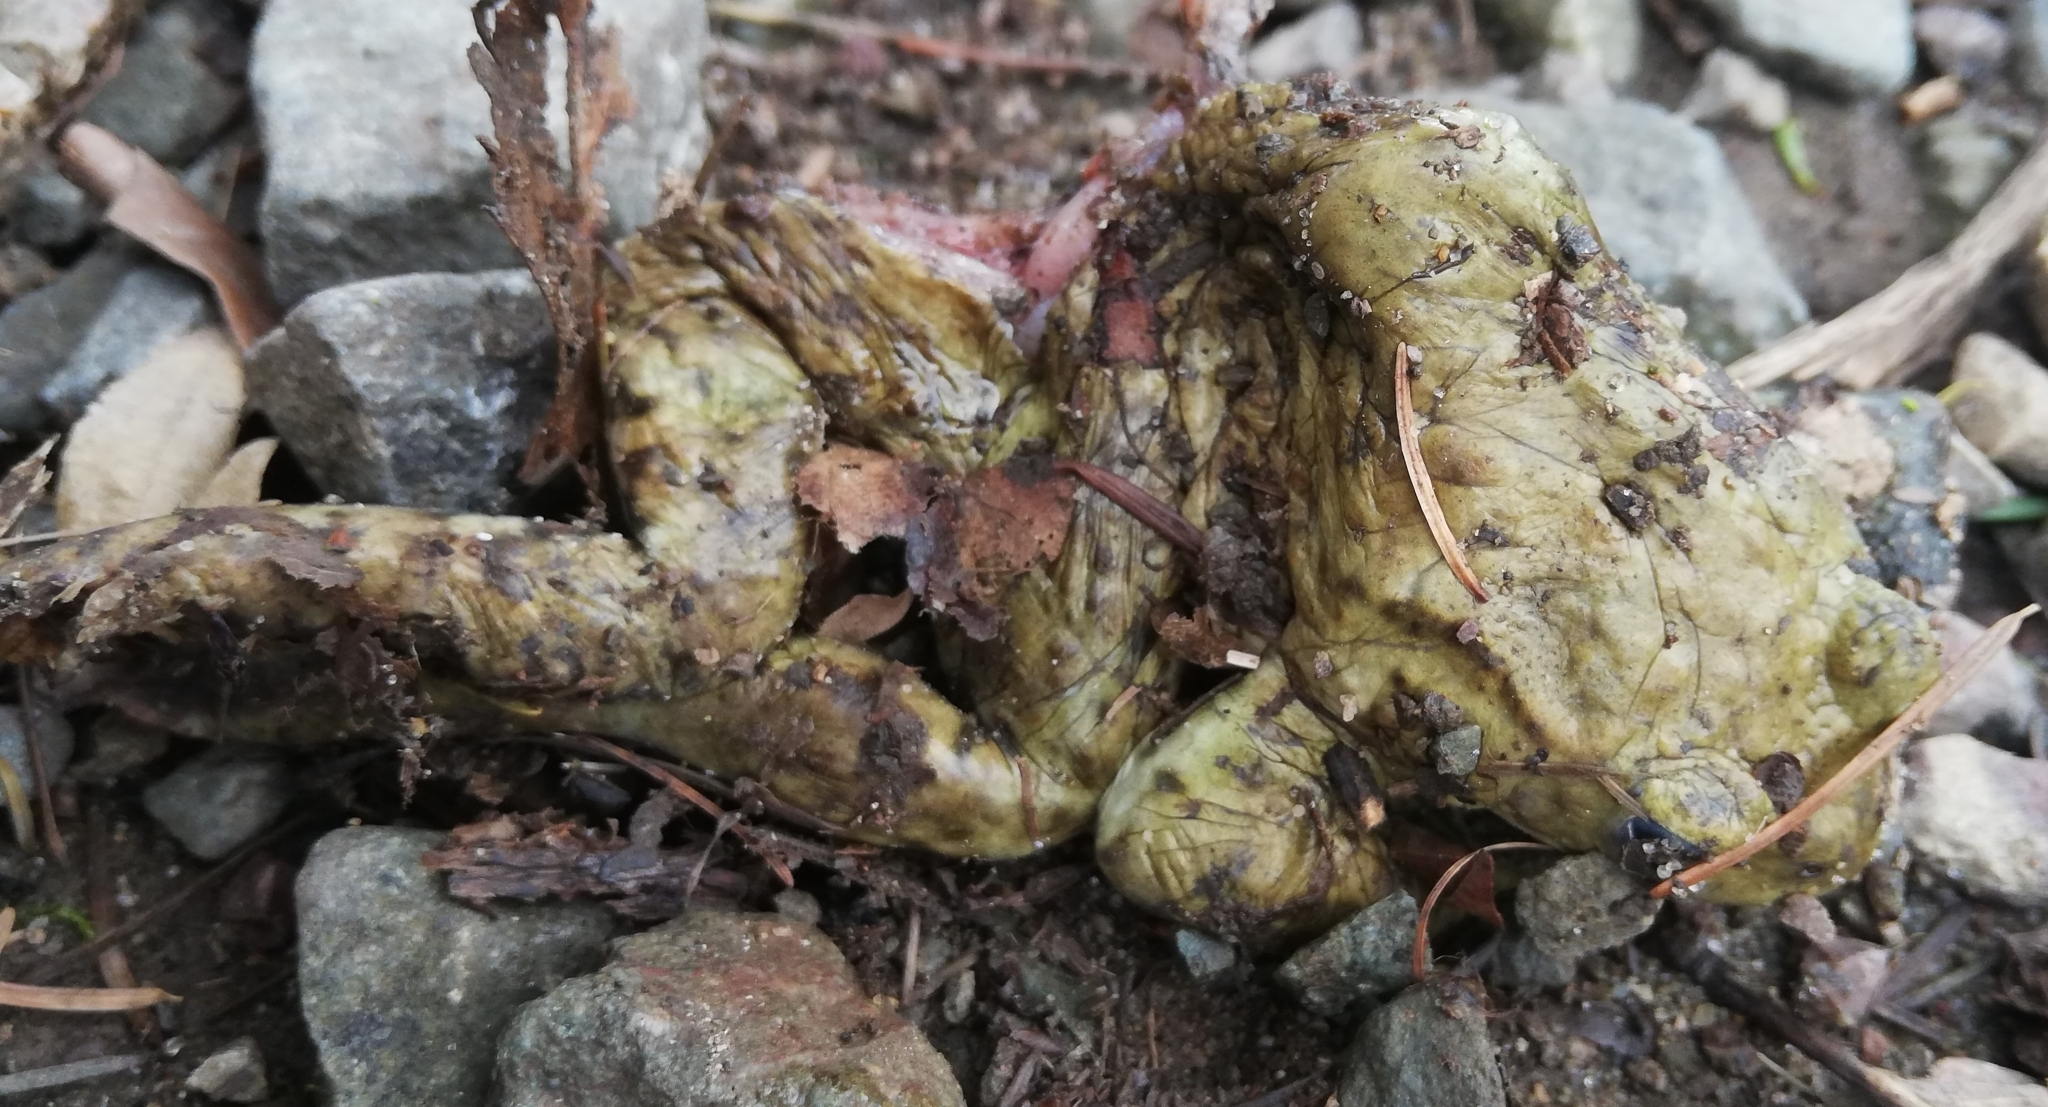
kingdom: Animalia
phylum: Chordata
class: Amphibia
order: Anura
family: Bufonidae
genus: Bufo
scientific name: Bufo bufo
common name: Common toad
